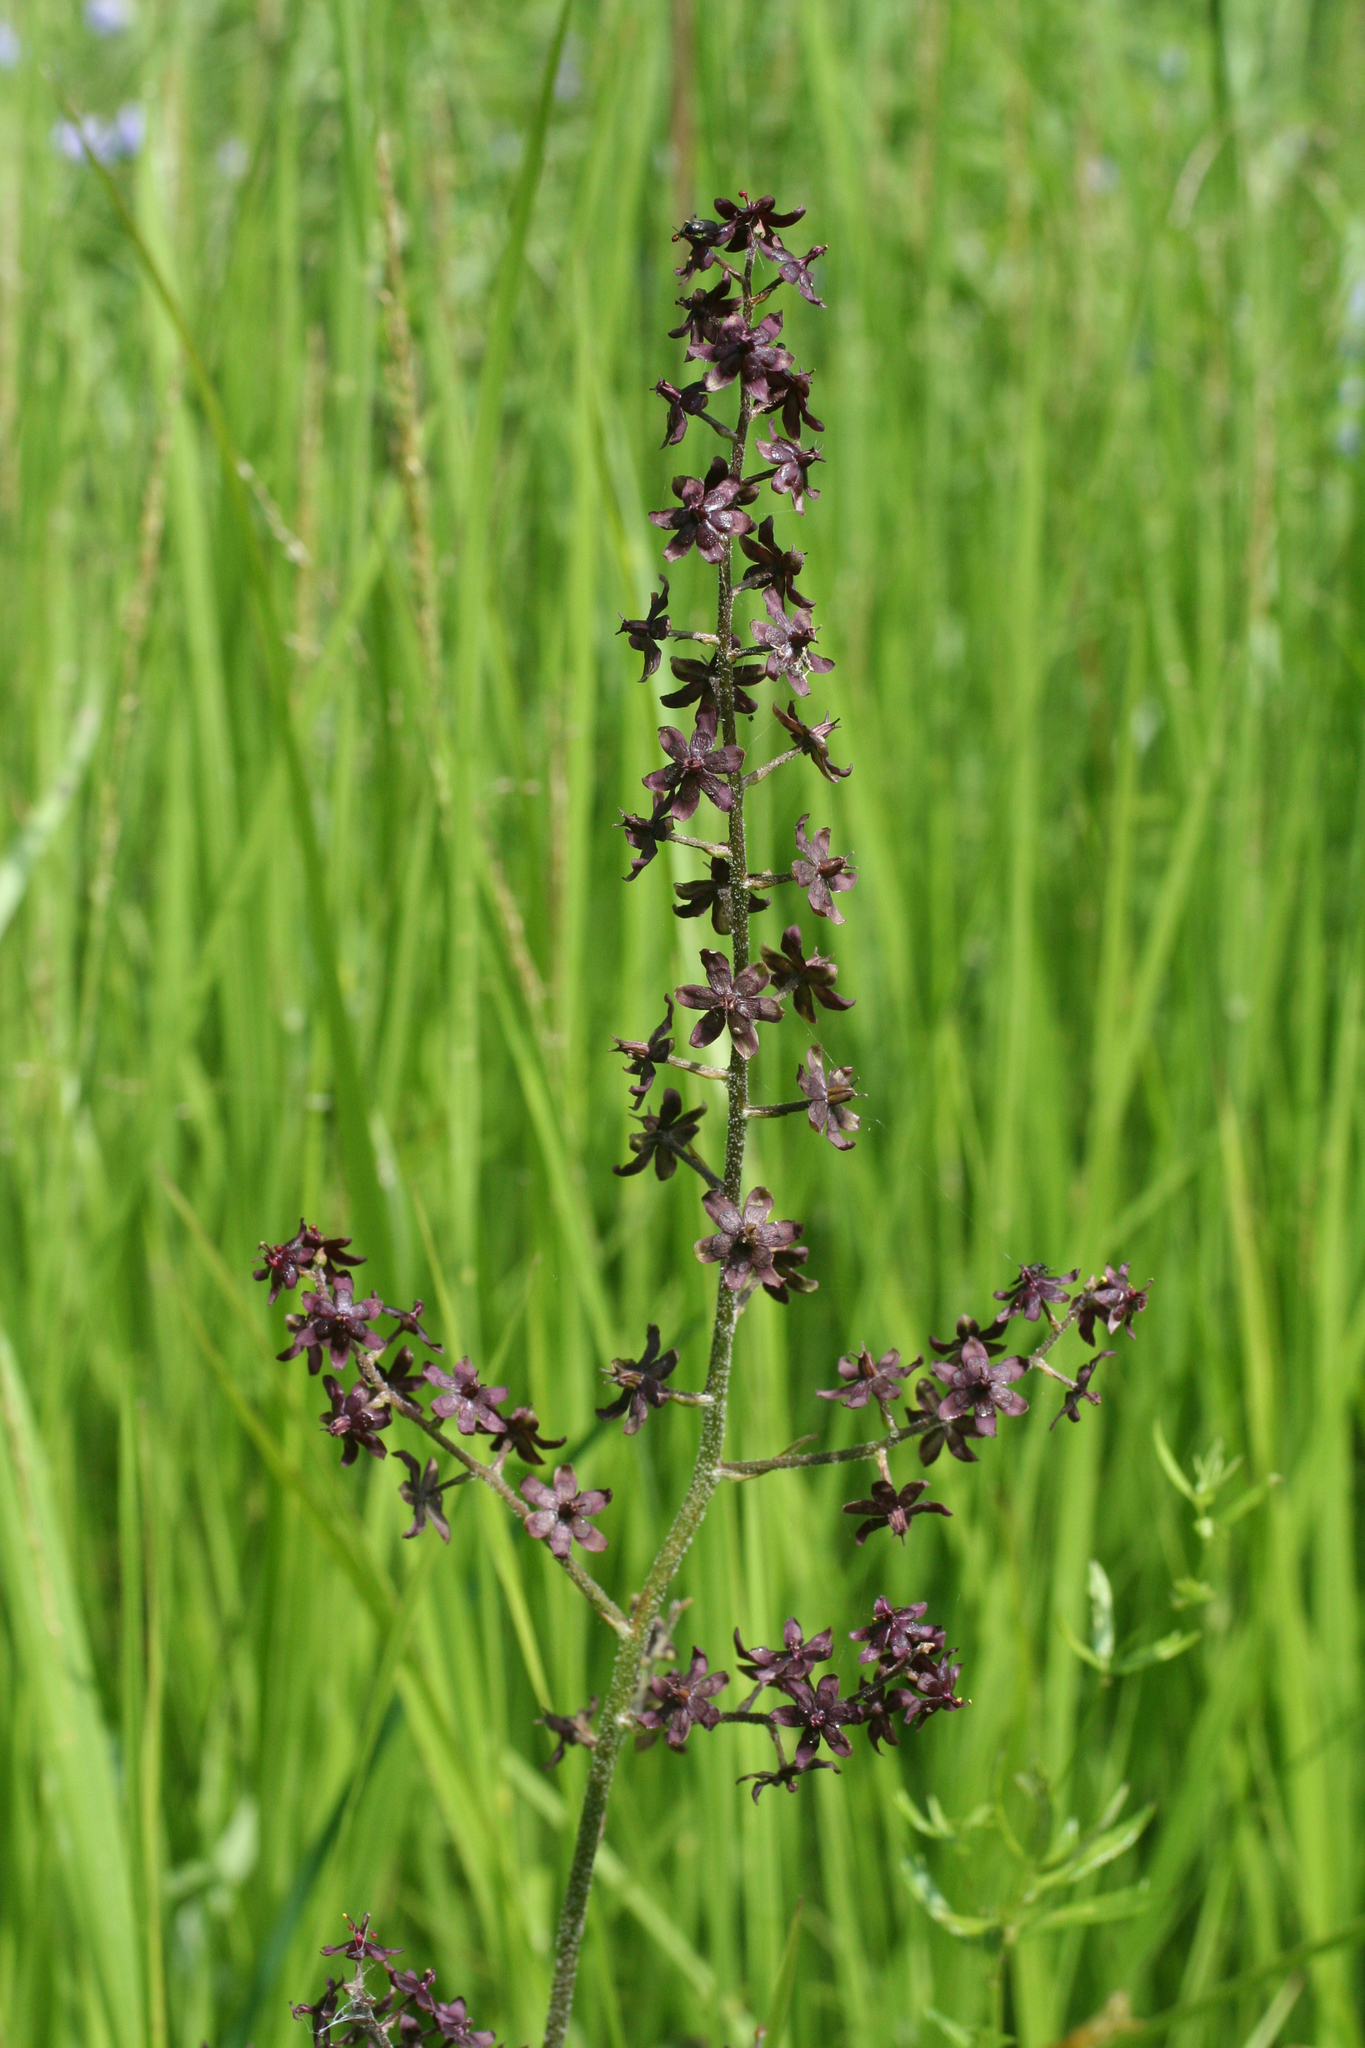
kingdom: Plantae
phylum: Tracheophyta
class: Liliopsida
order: Liliales
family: Melanthiaceae
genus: Veratrum
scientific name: Veratrum maackii
